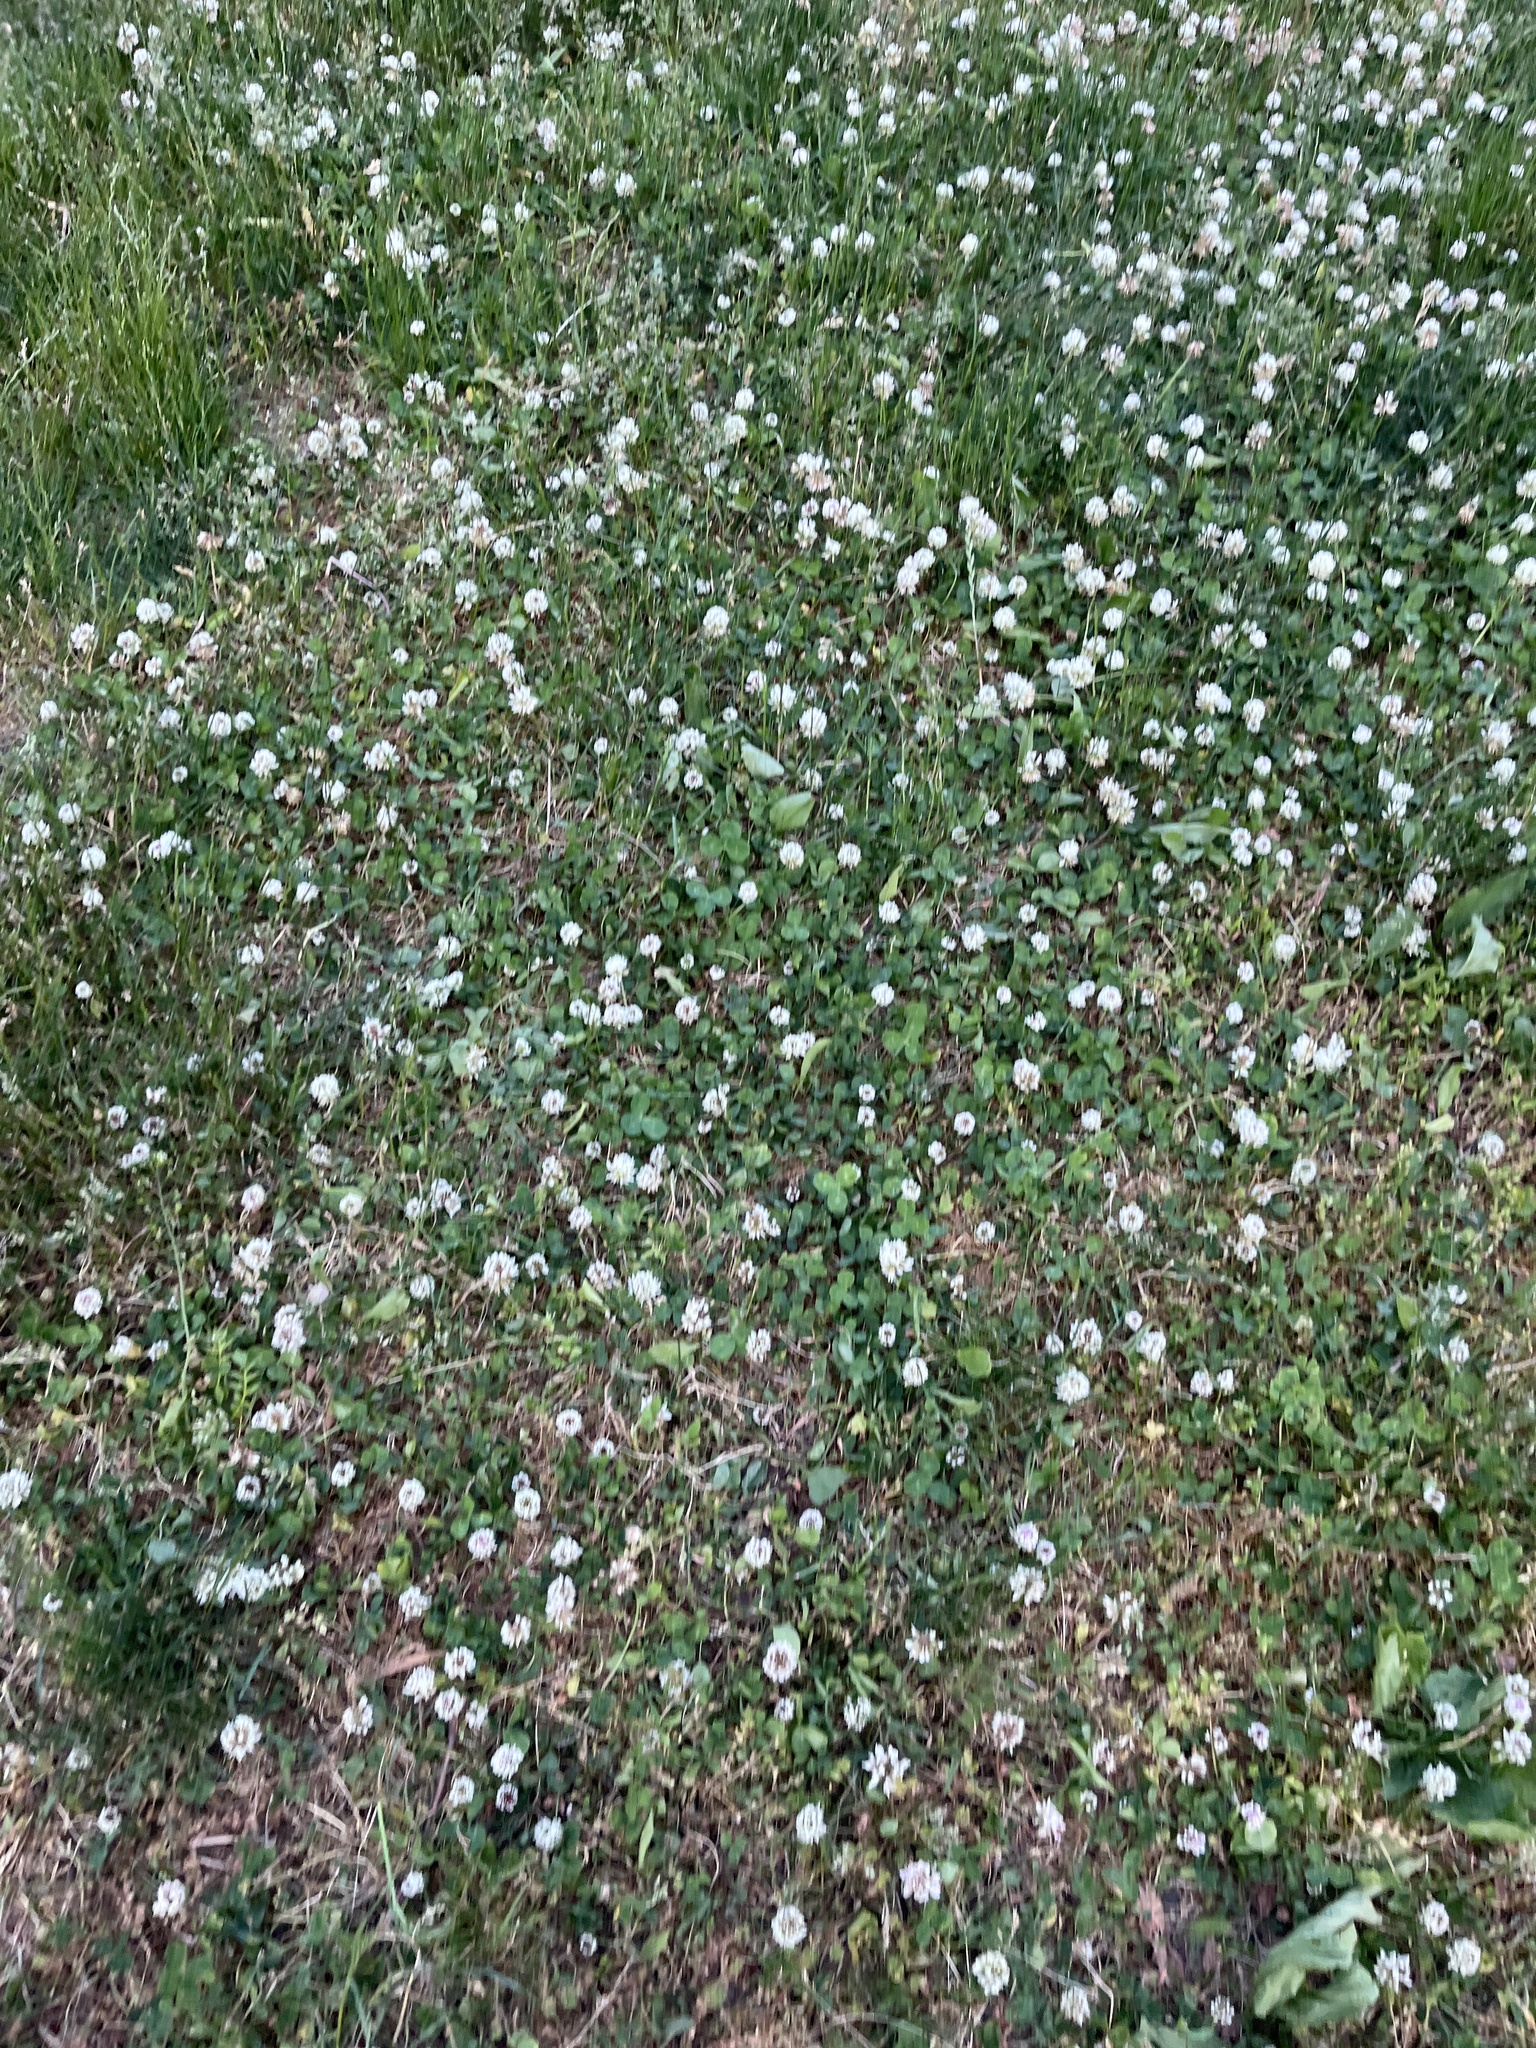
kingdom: Plantae
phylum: Tracheophyta
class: Magnoliopsida
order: Fabales
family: Fabaceae
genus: Trifolium
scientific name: Trifolium repens
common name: White clover
